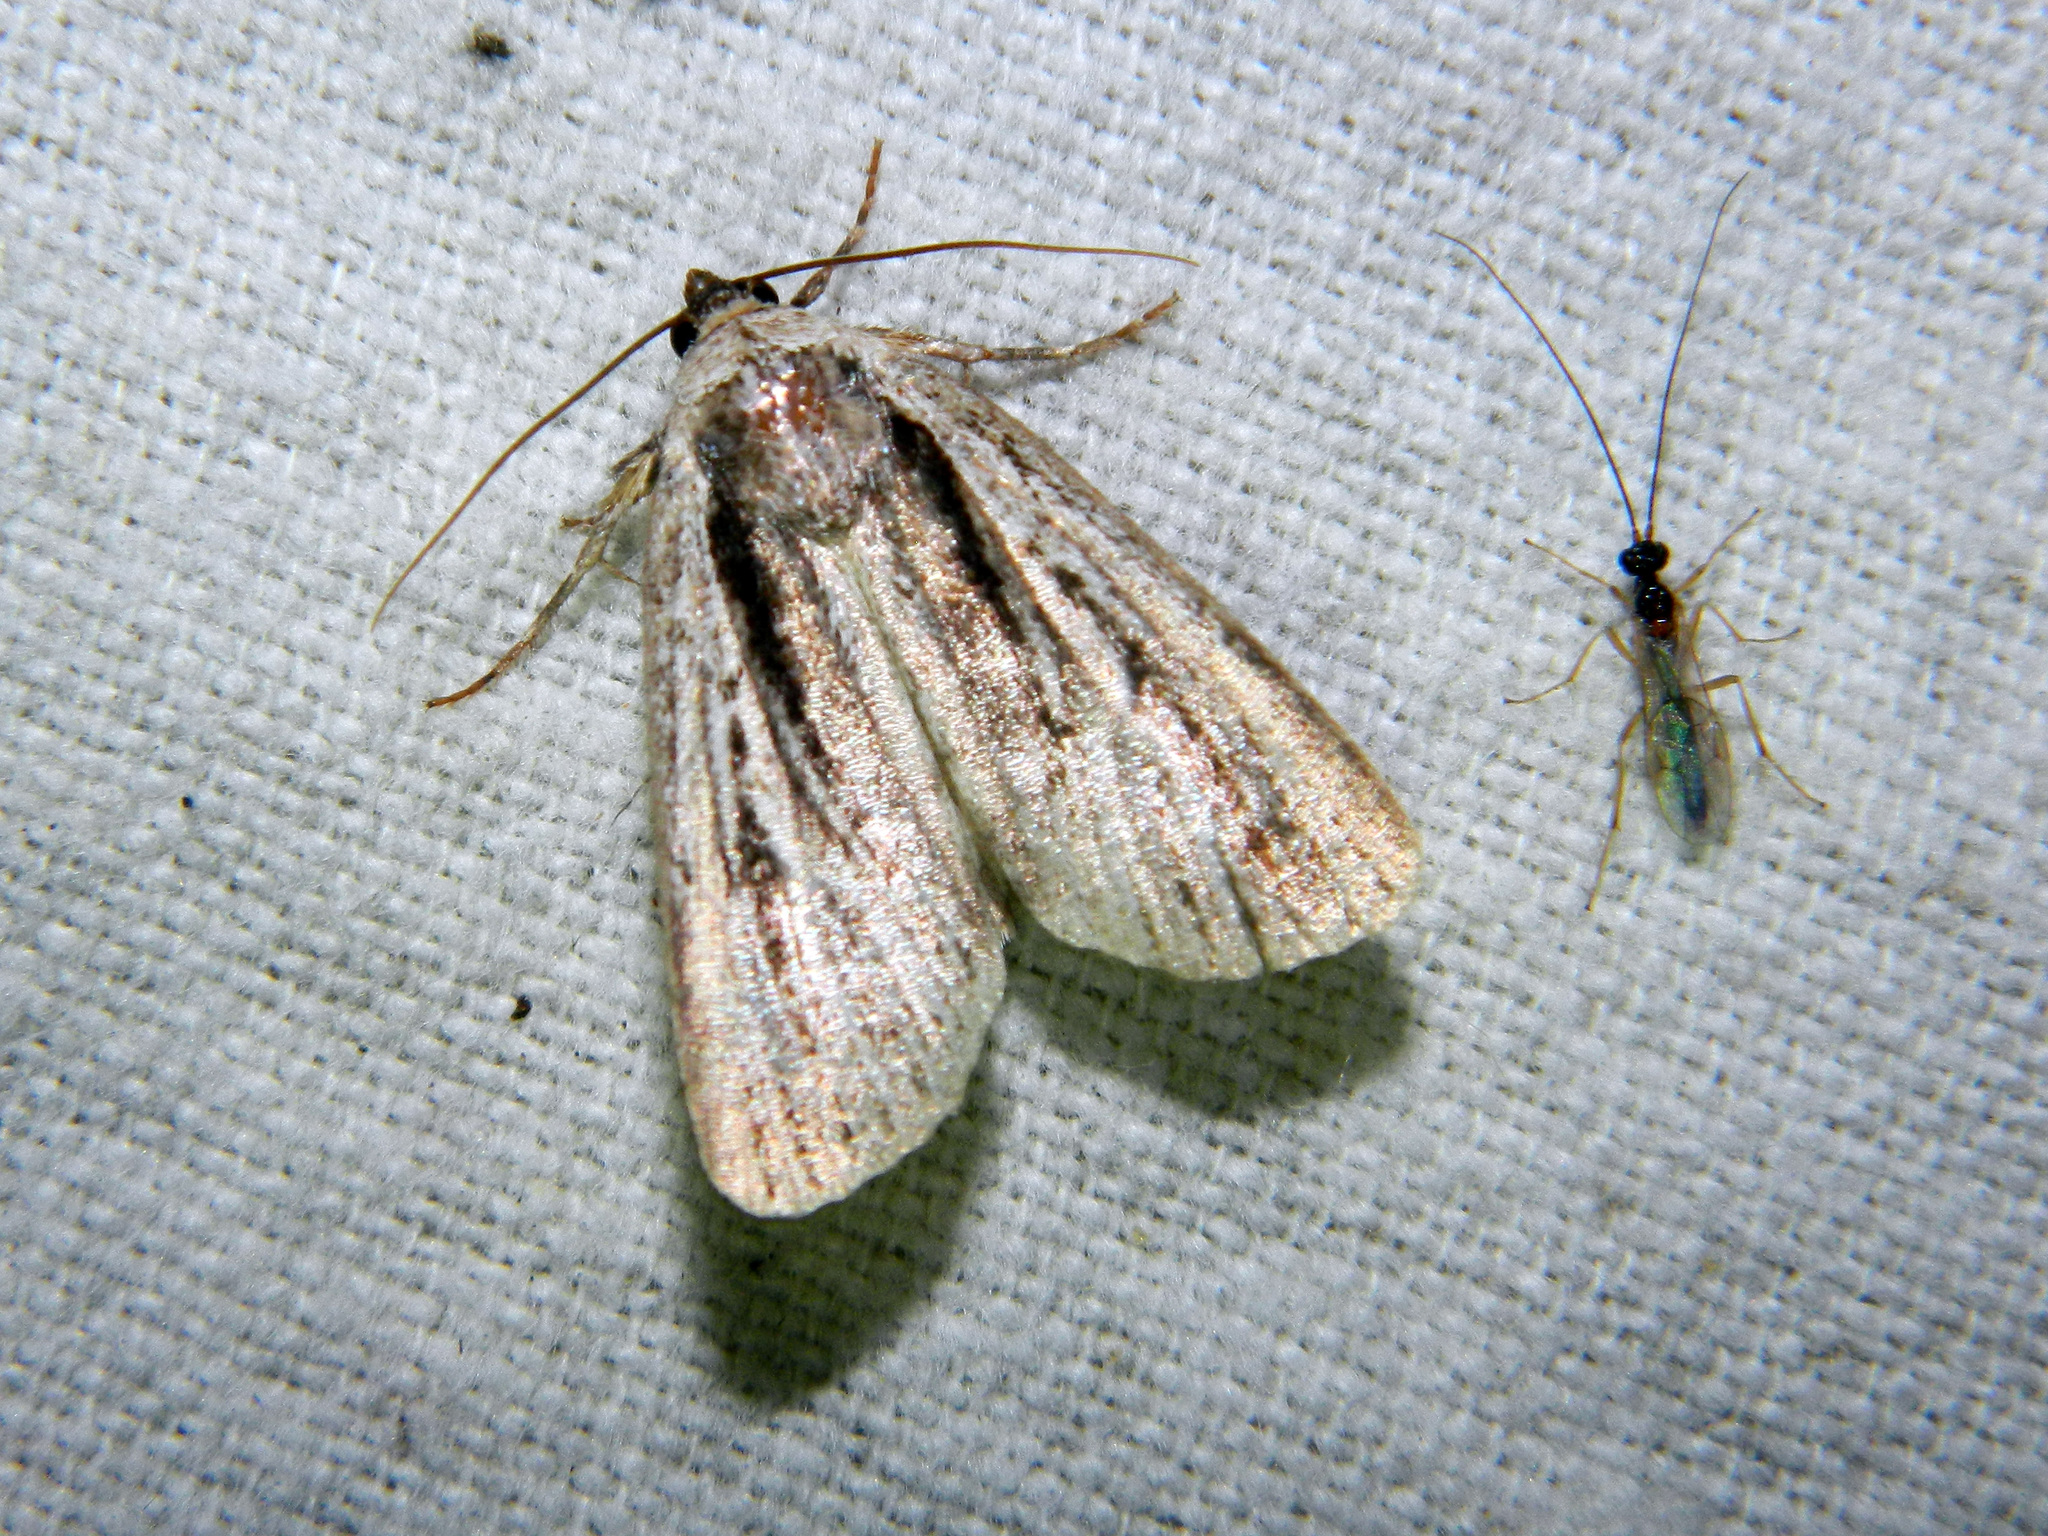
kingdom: Animalia
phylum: Arthropoda
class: Insecta
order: Lepidoptera
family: Noctuidae
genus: Sympistis
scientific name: Sympistis badistriga
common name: Brown-lined sallow moth
